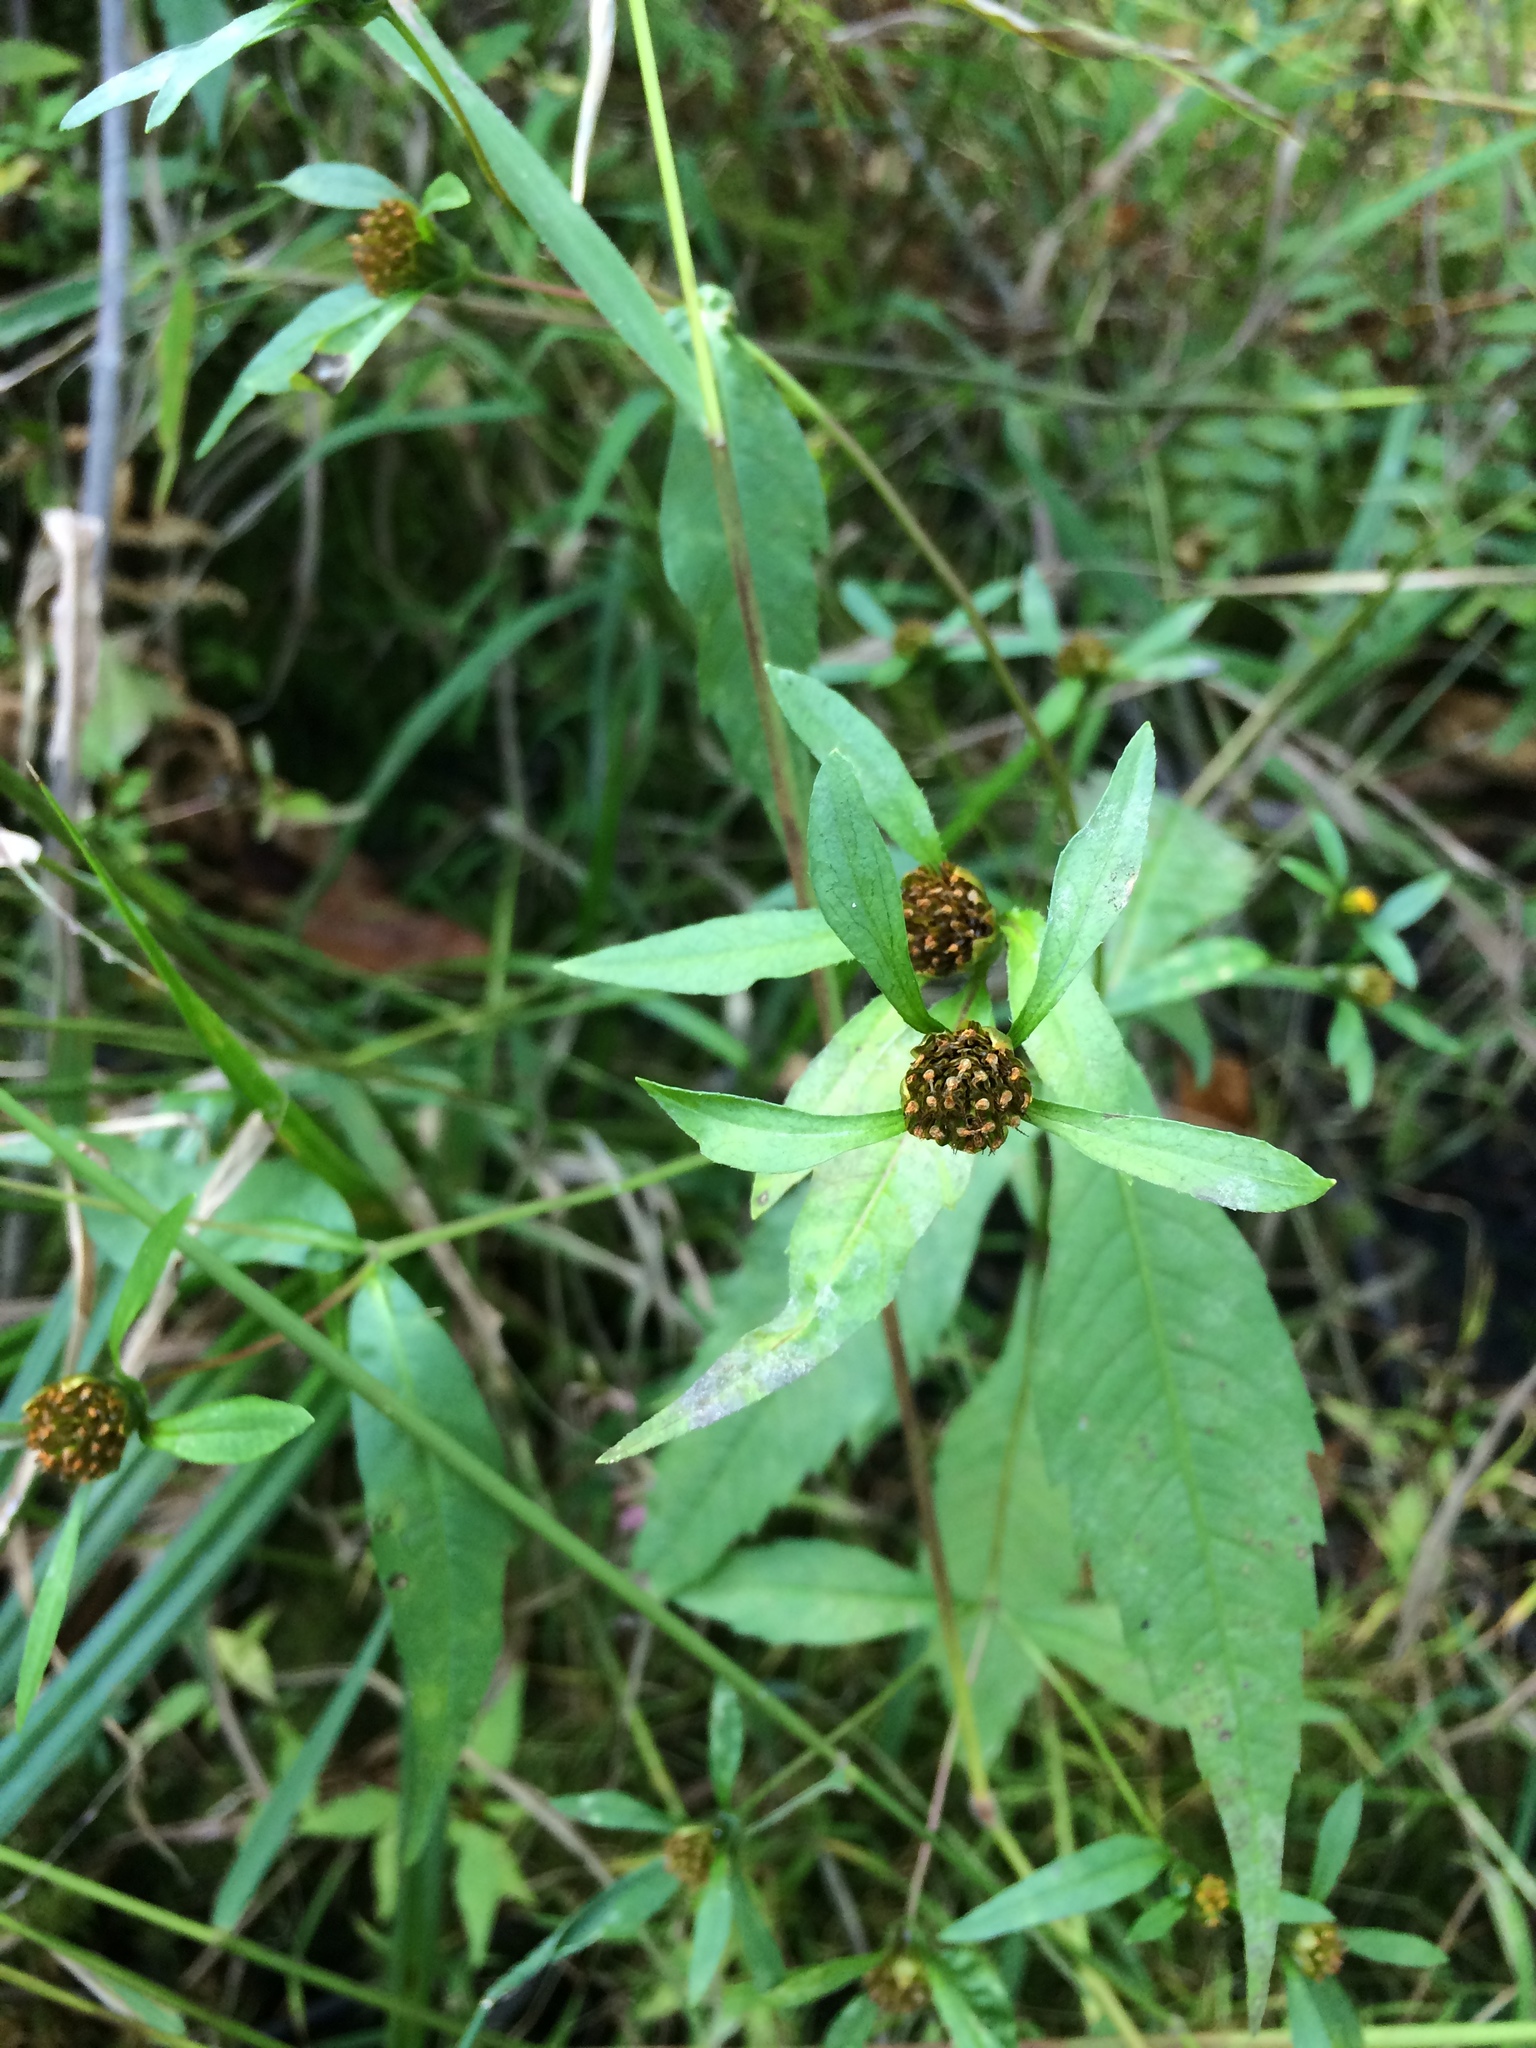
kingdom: Plantae
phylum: Tracheophyta
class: Magnoliopsida
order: Asterales
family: Asteraceae
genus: Bidens
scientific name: Bidens cernua
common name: Nodding bur-marigold
